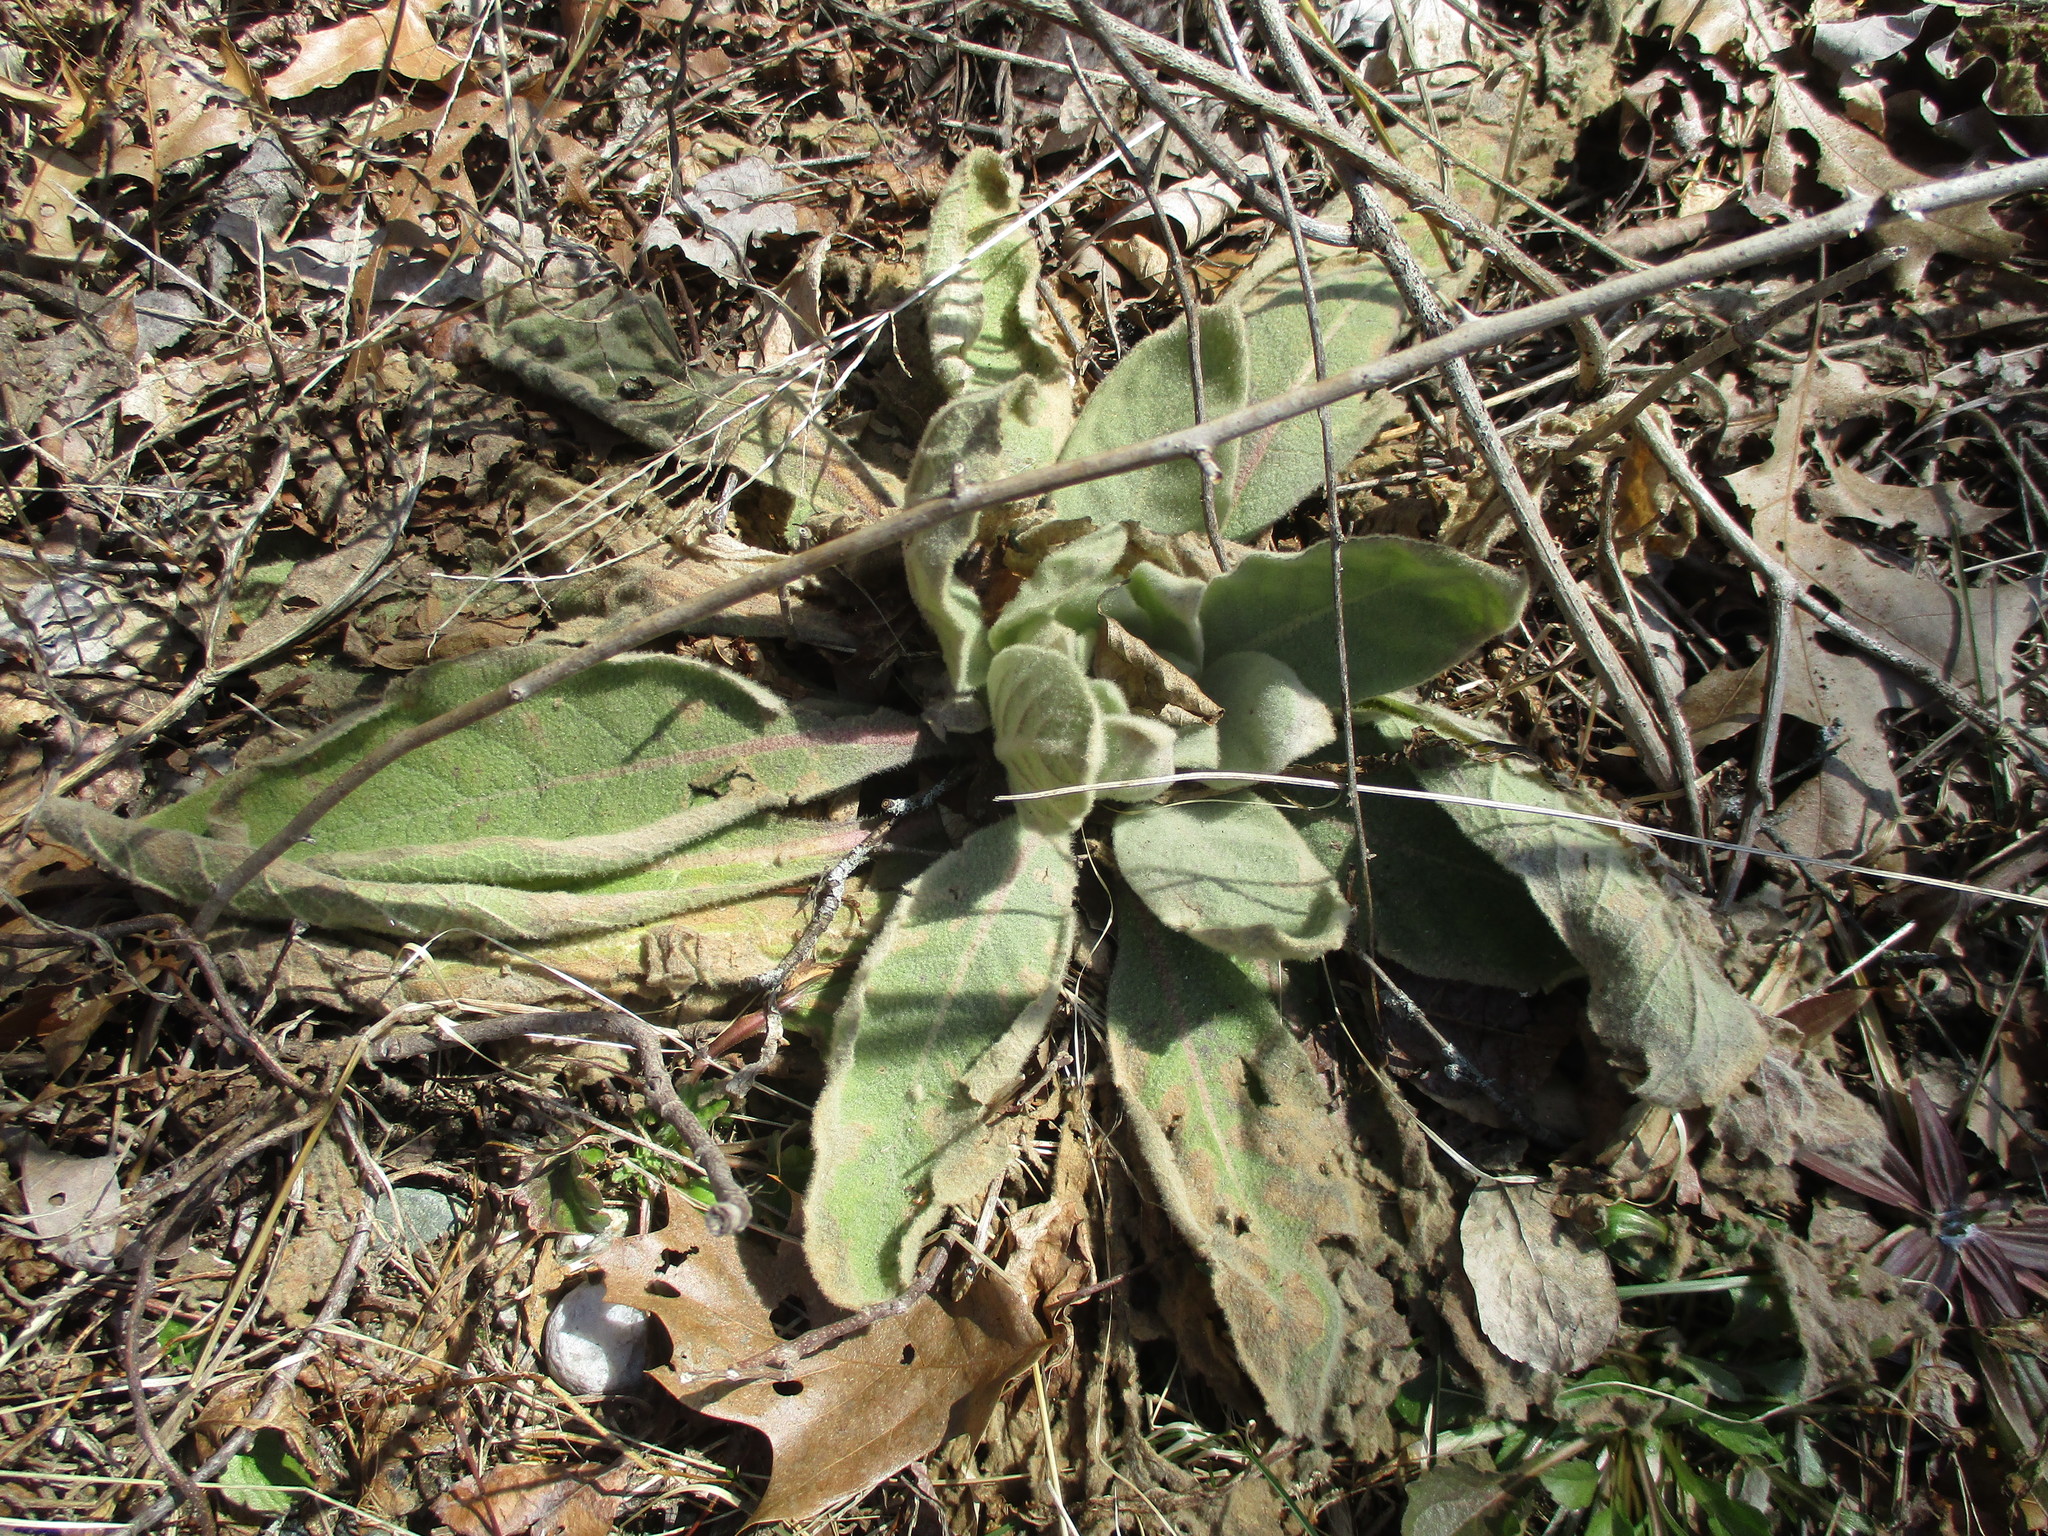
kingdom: Plantae
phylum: Tracheophyta
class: Magnoliopsida
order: Lamiales
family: Scrophulariaceae
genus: Verbascum
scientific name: Verbascum thapsus
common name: Common mullein
